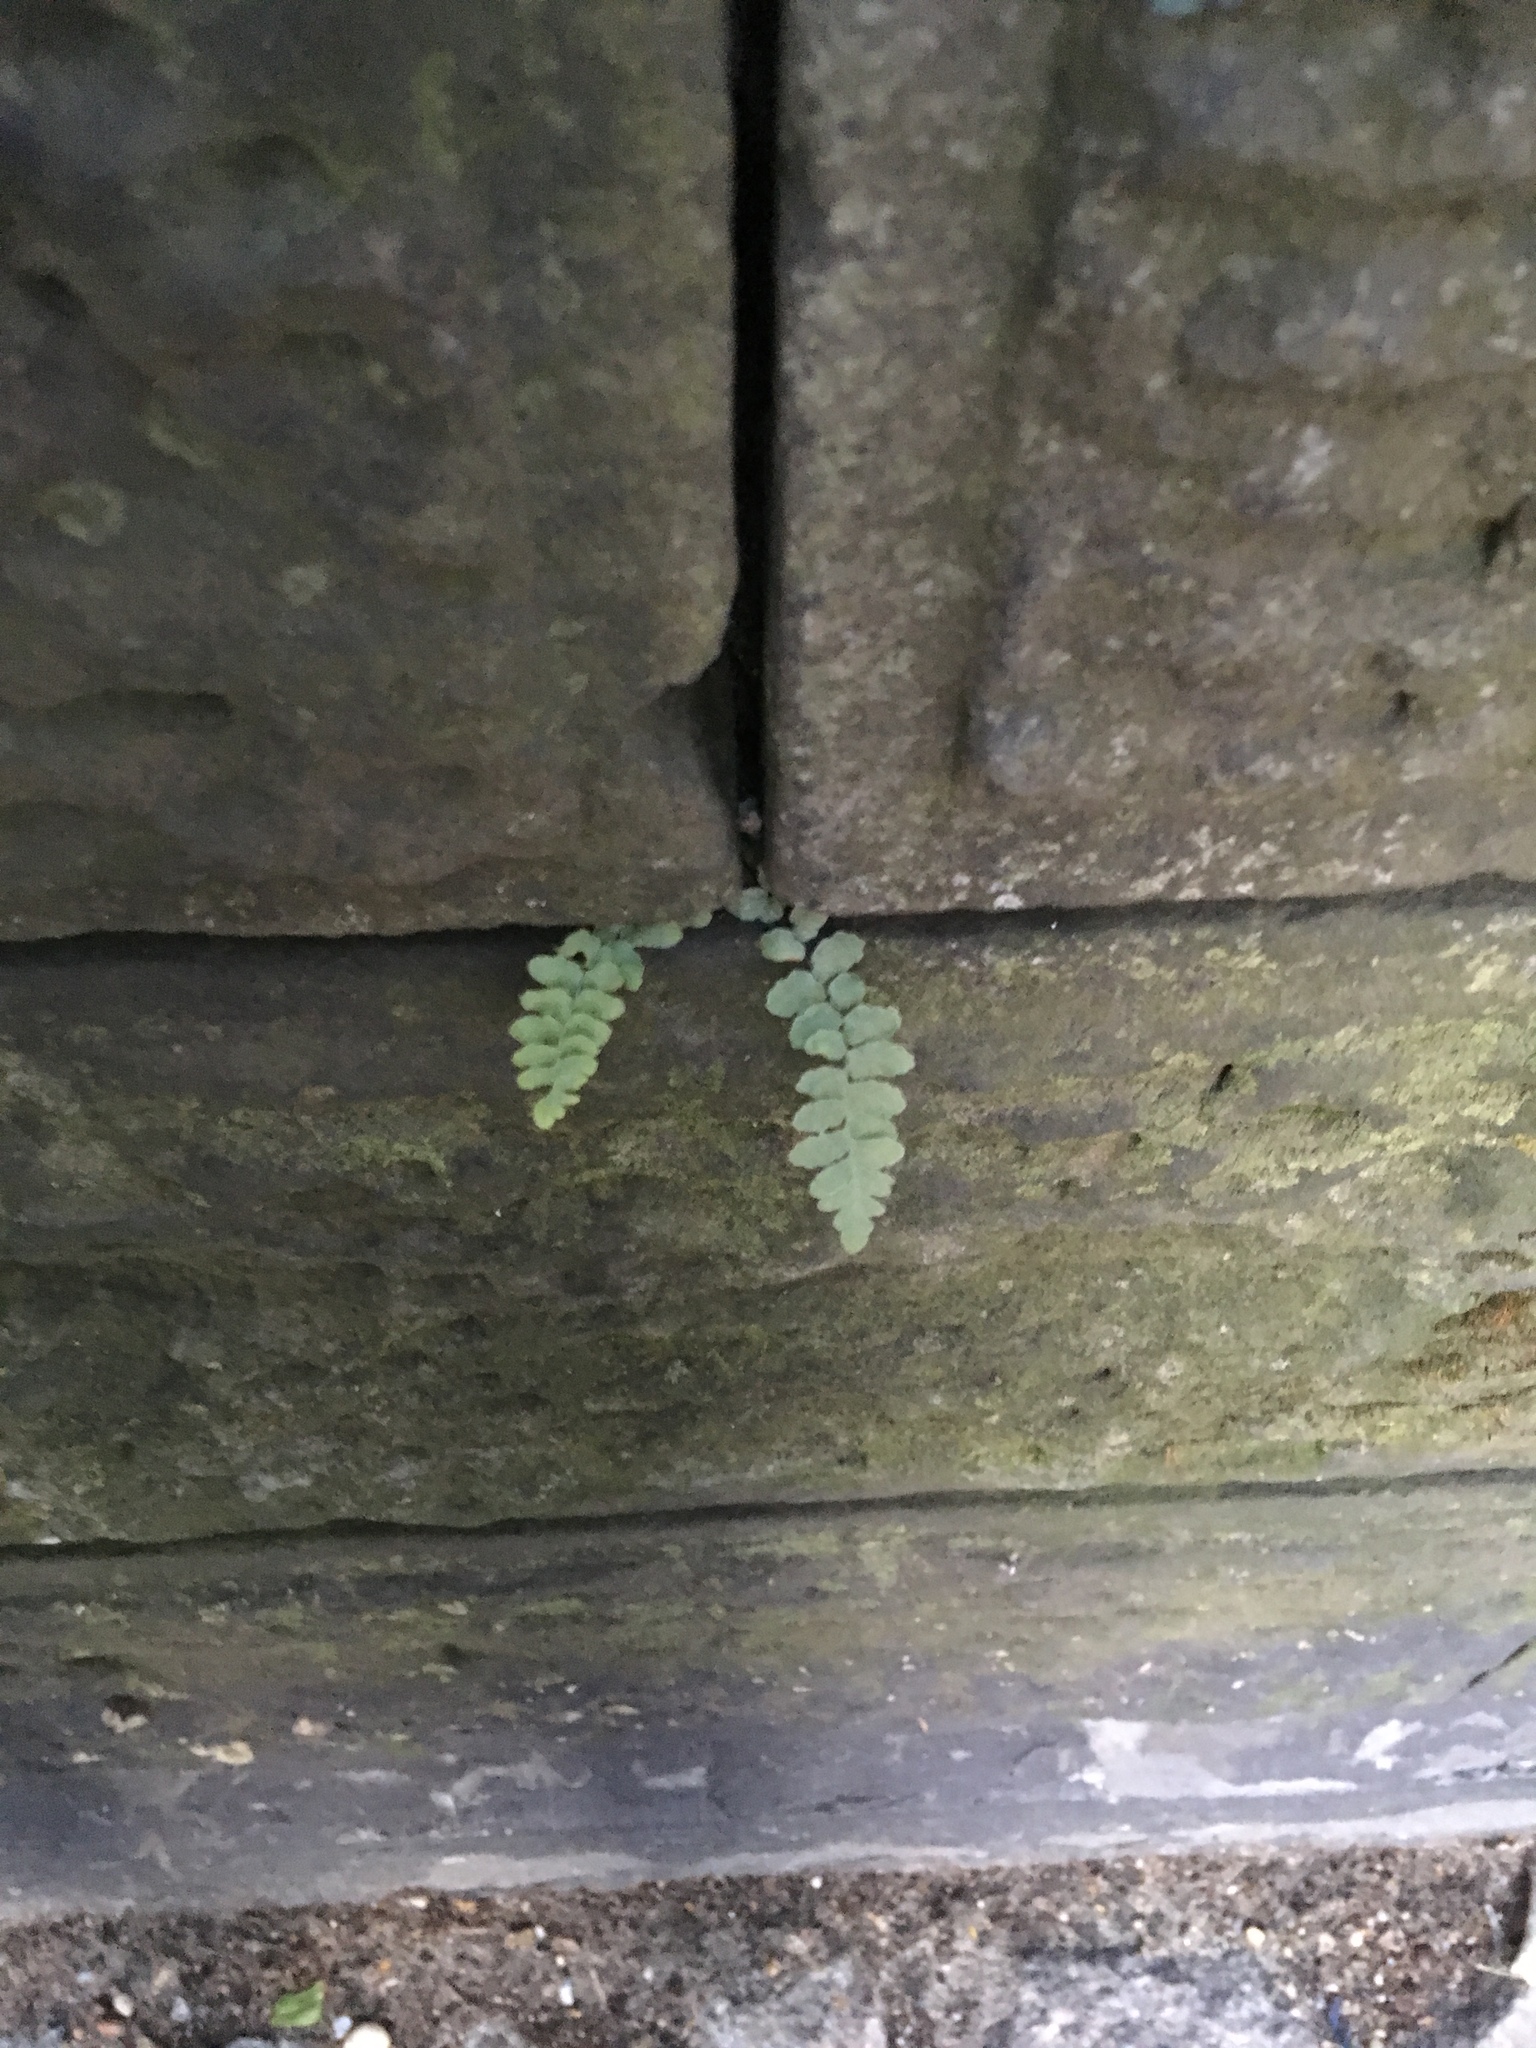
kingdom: Plantae
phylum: Tracheophyta
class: Polypodiopsida
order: Polypodiales
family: Aspleniaceae
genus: Asplenium
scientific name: Asplenium platyneuron
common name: Ebony spleenwort
